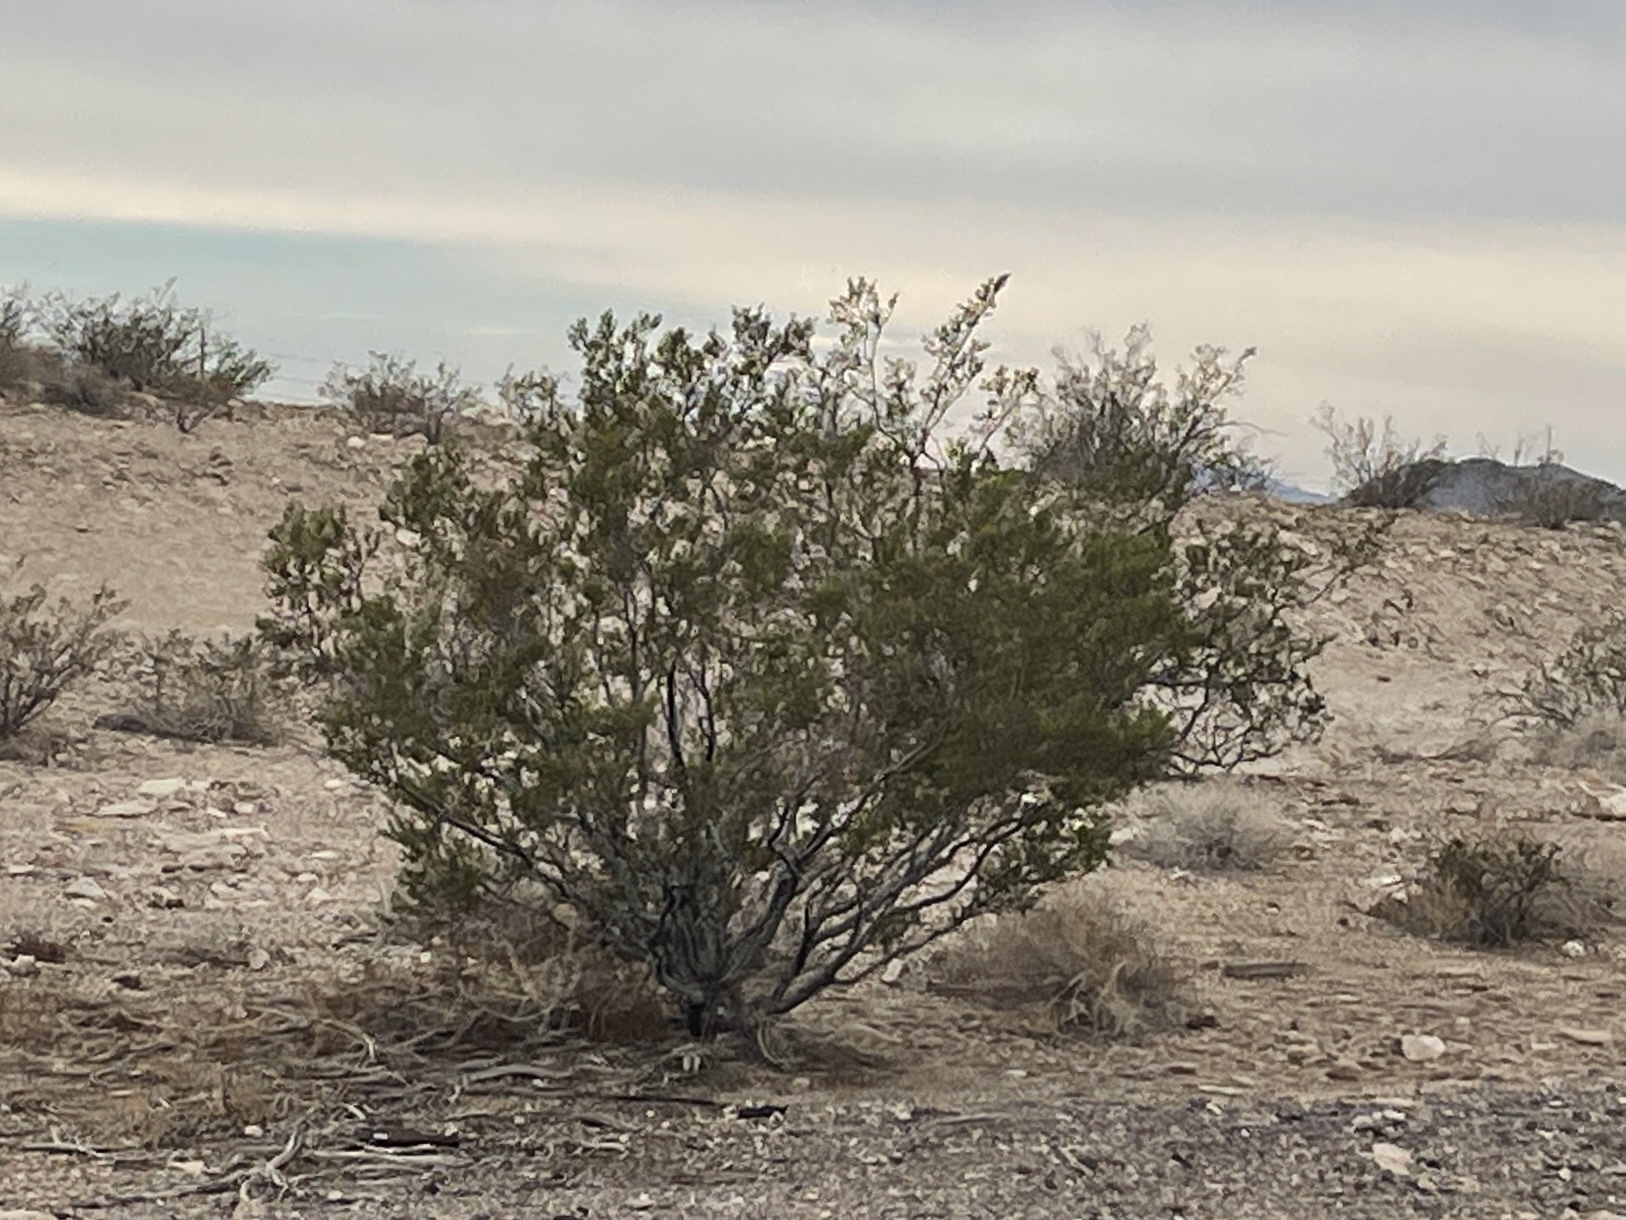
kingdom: Plantae
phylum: Tracheophyta
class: Magnoliopsida
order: Zygophyllales
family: Zygophyllaceae
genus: Larrea
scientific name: Larrea tridentata
